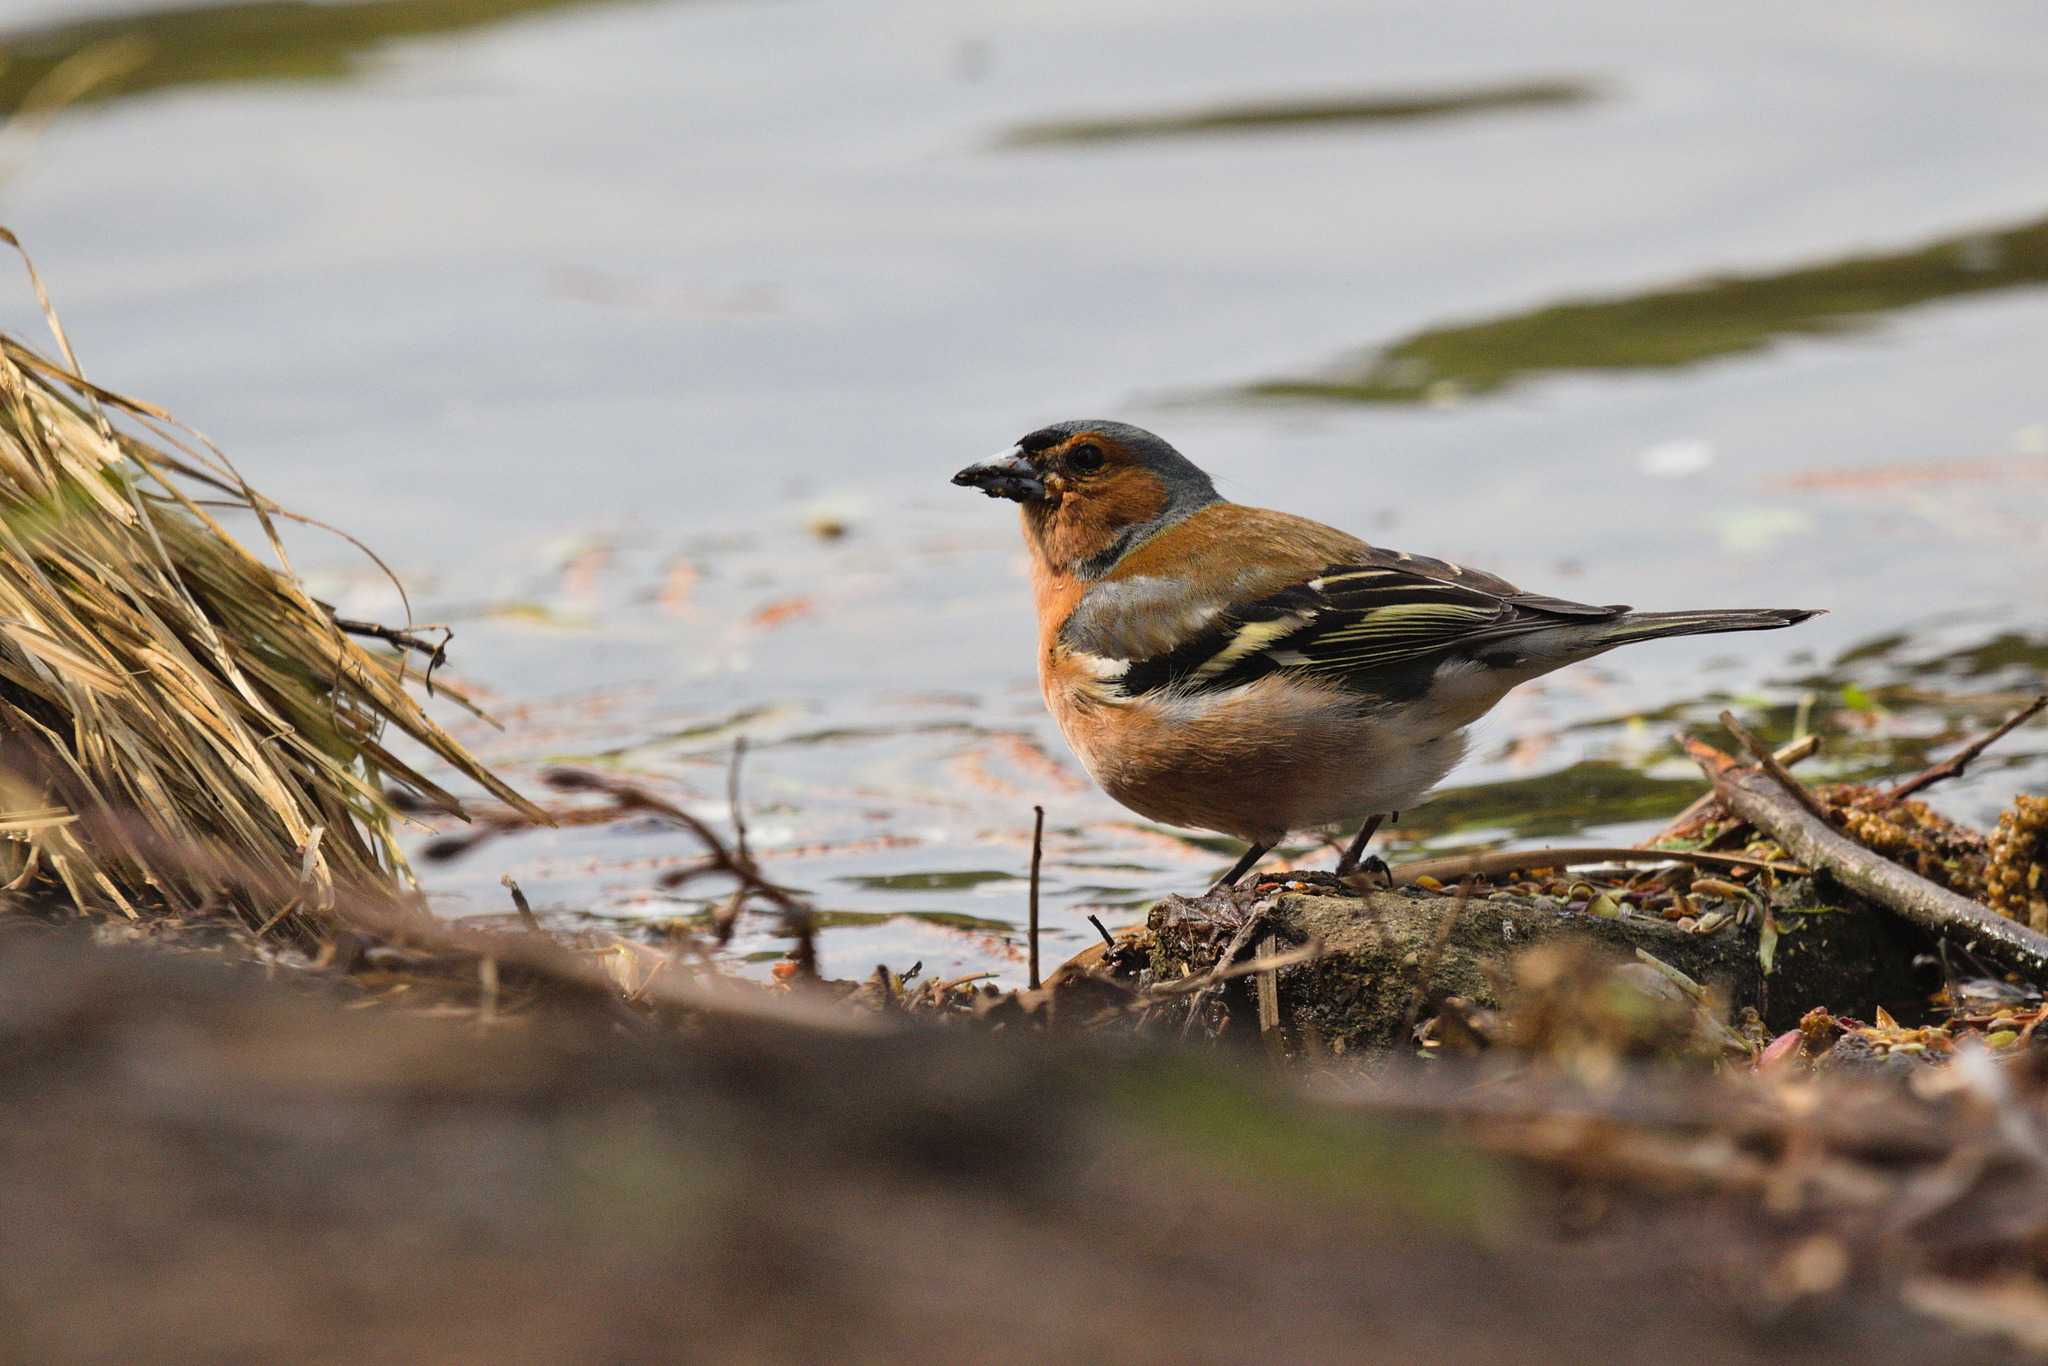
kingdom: Animalia
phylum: Chordata
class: Aves
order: Passeriformes
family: Fringillidae
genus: Fringilla
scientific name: Fringilla coelebs
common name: Common chaffinch
